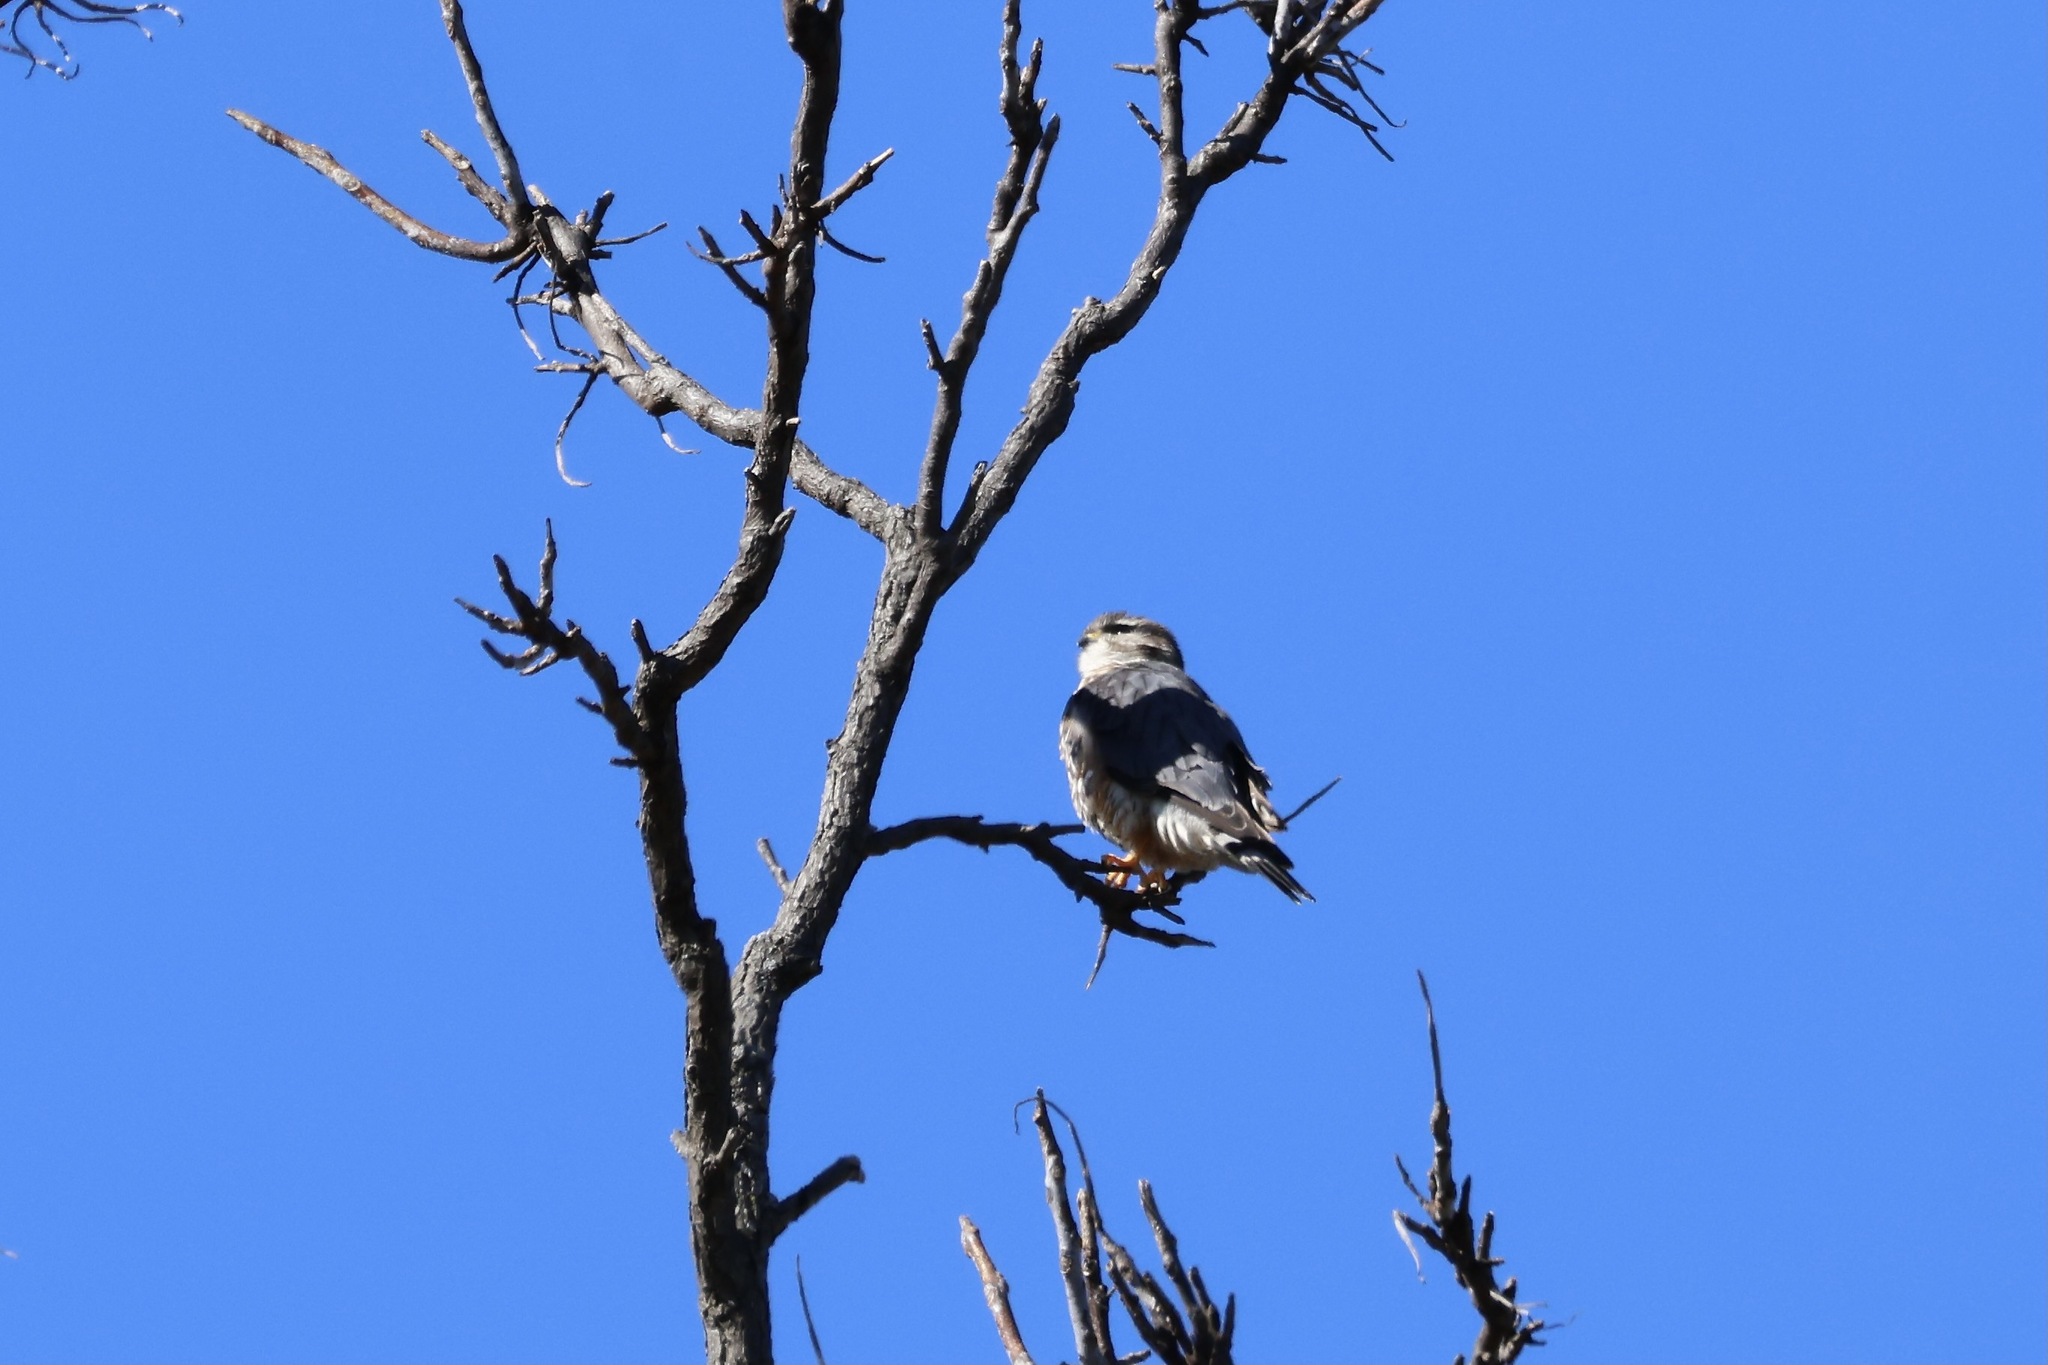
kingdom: Animalia
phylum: Chordata
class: Aves
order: Falconiformes
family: Falconidae
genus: Falco
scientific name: Falco columbarius
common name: Merlin
